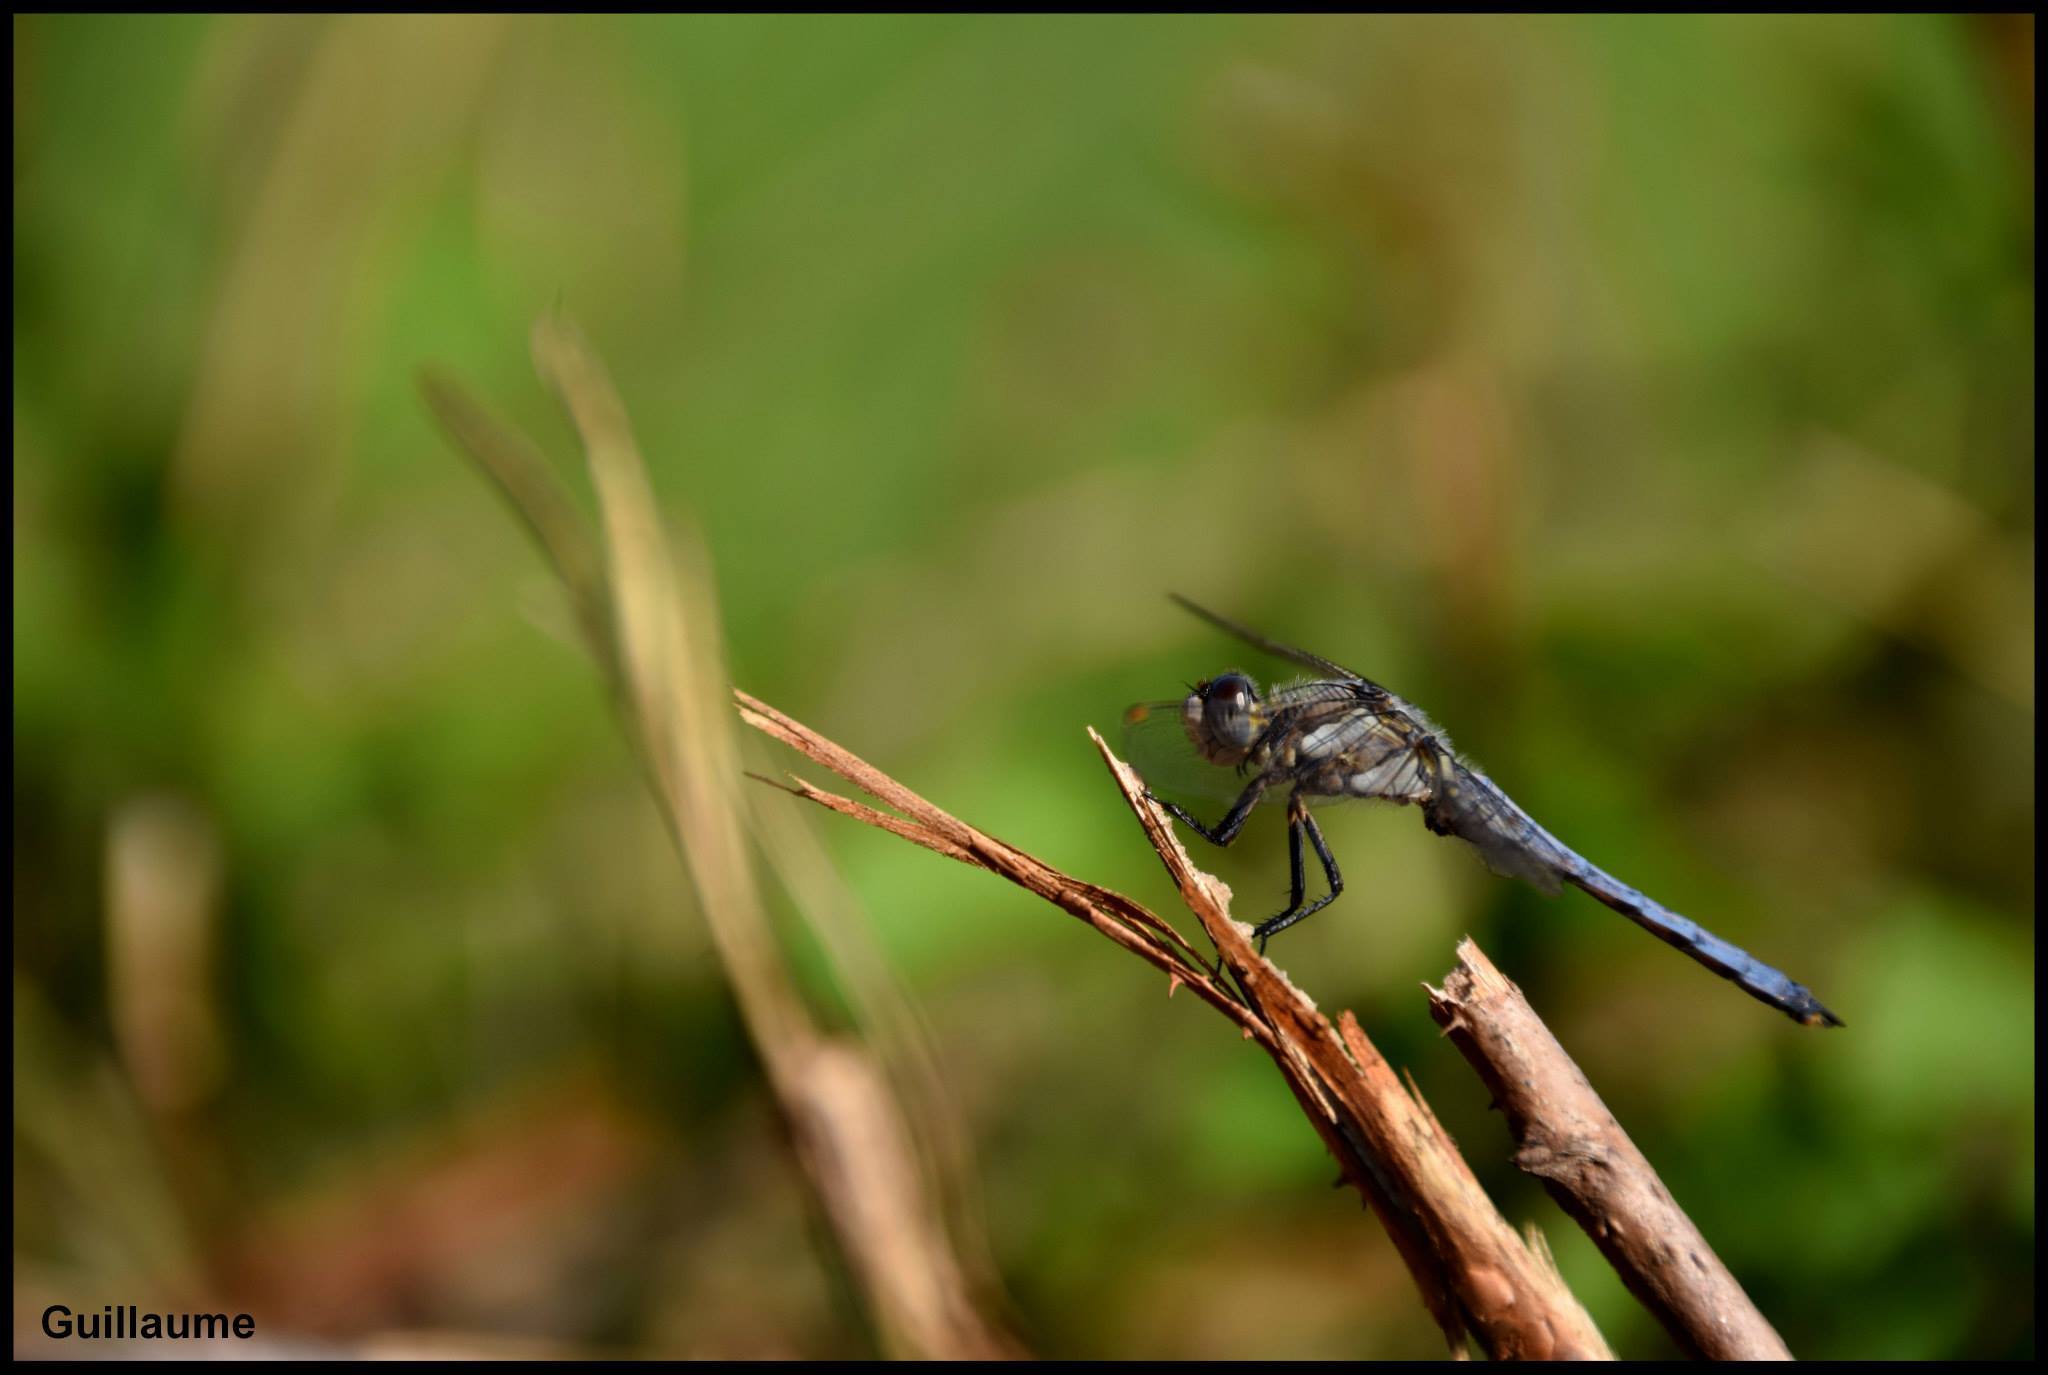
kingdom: Animalia
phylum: Arthropoda
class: Insecta
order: Odonata
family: Libellulidae
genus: Orthetrum
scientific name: Orthetrum brunneum
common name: Southern skimmer
